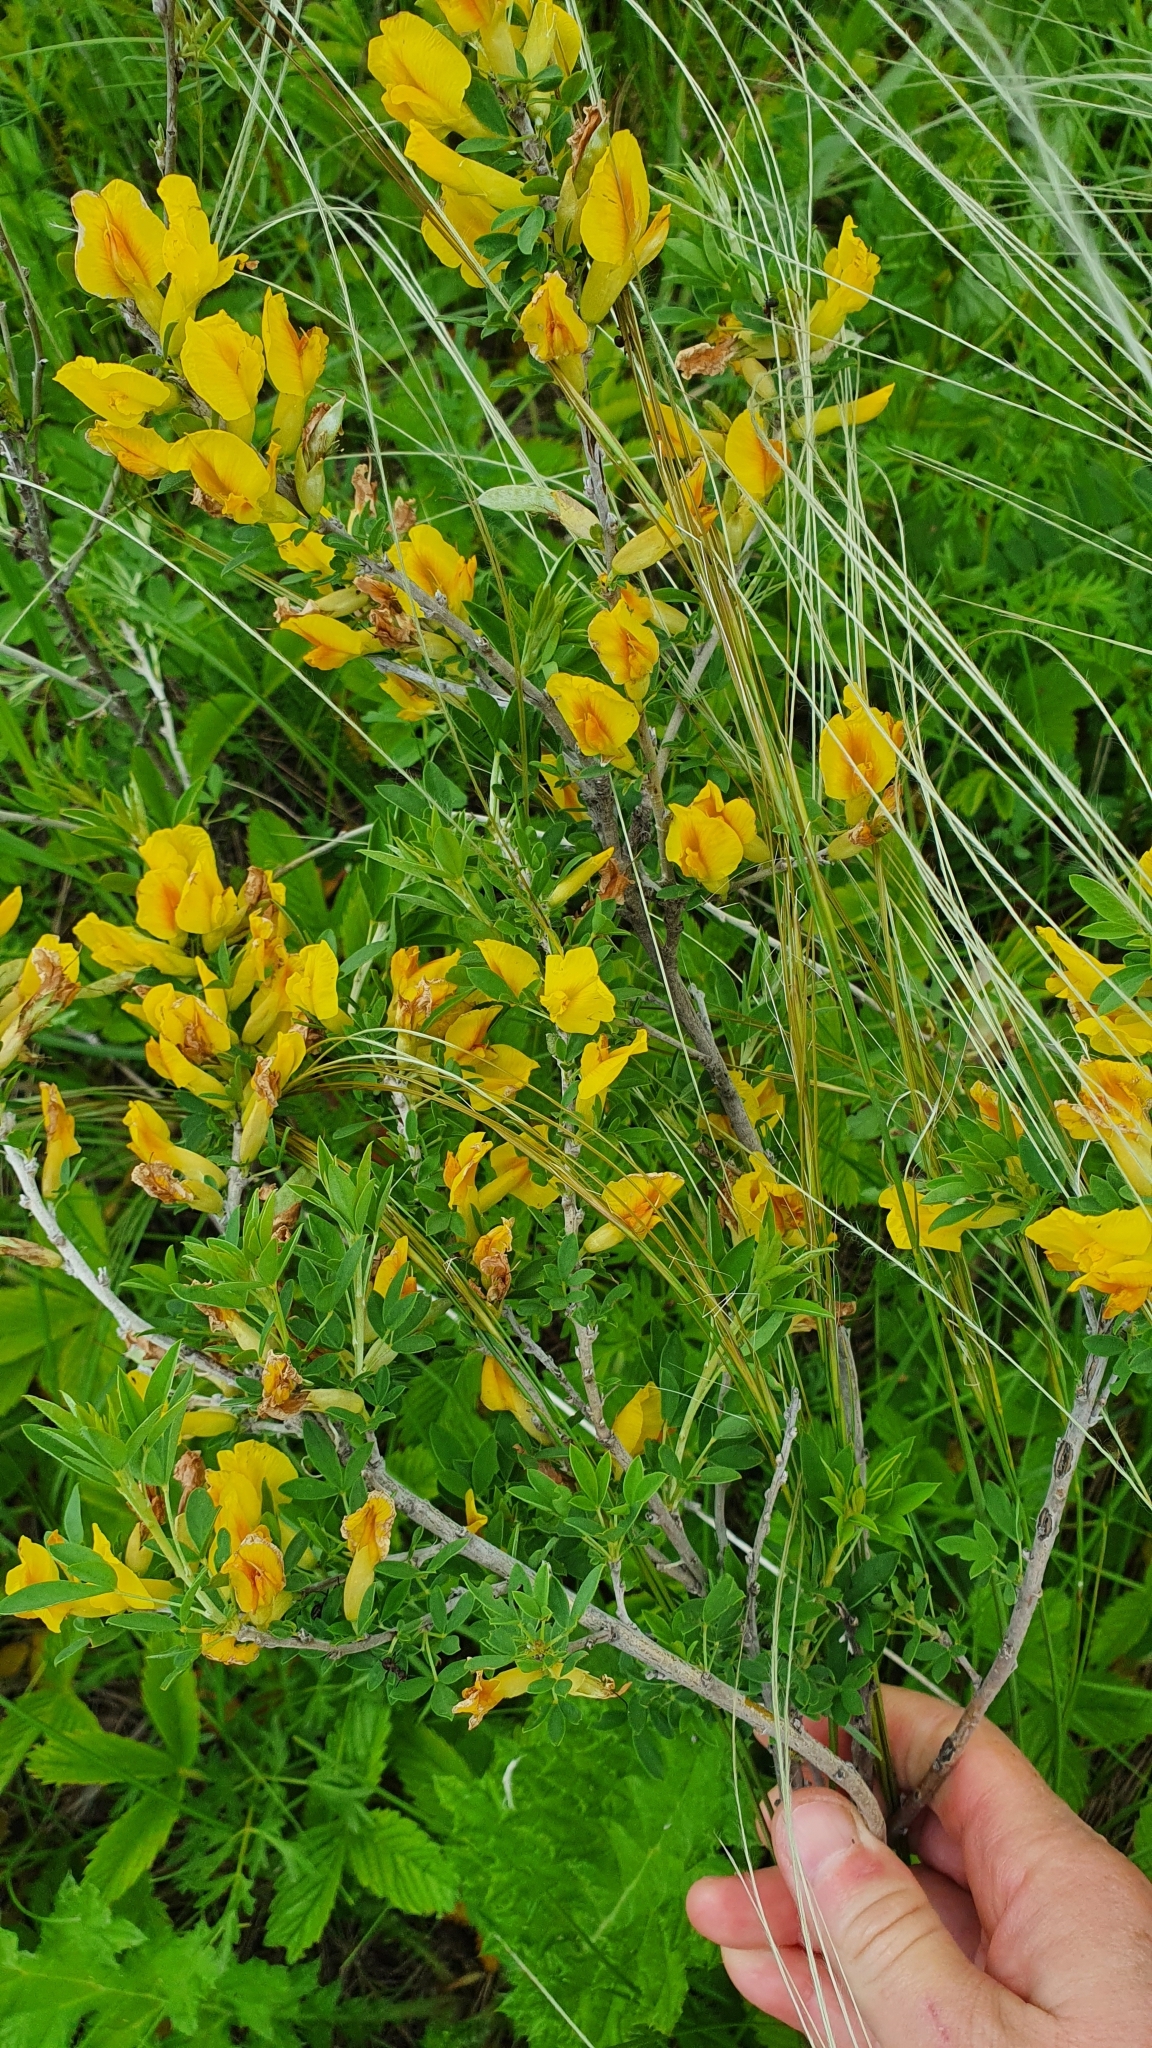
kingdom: Plantae
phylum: Tracheophyta
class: Magnoliopsida
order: Fabales
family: Fabaceae
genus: Chamaecytisus
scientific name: Chamaecytisus ruthenicus
